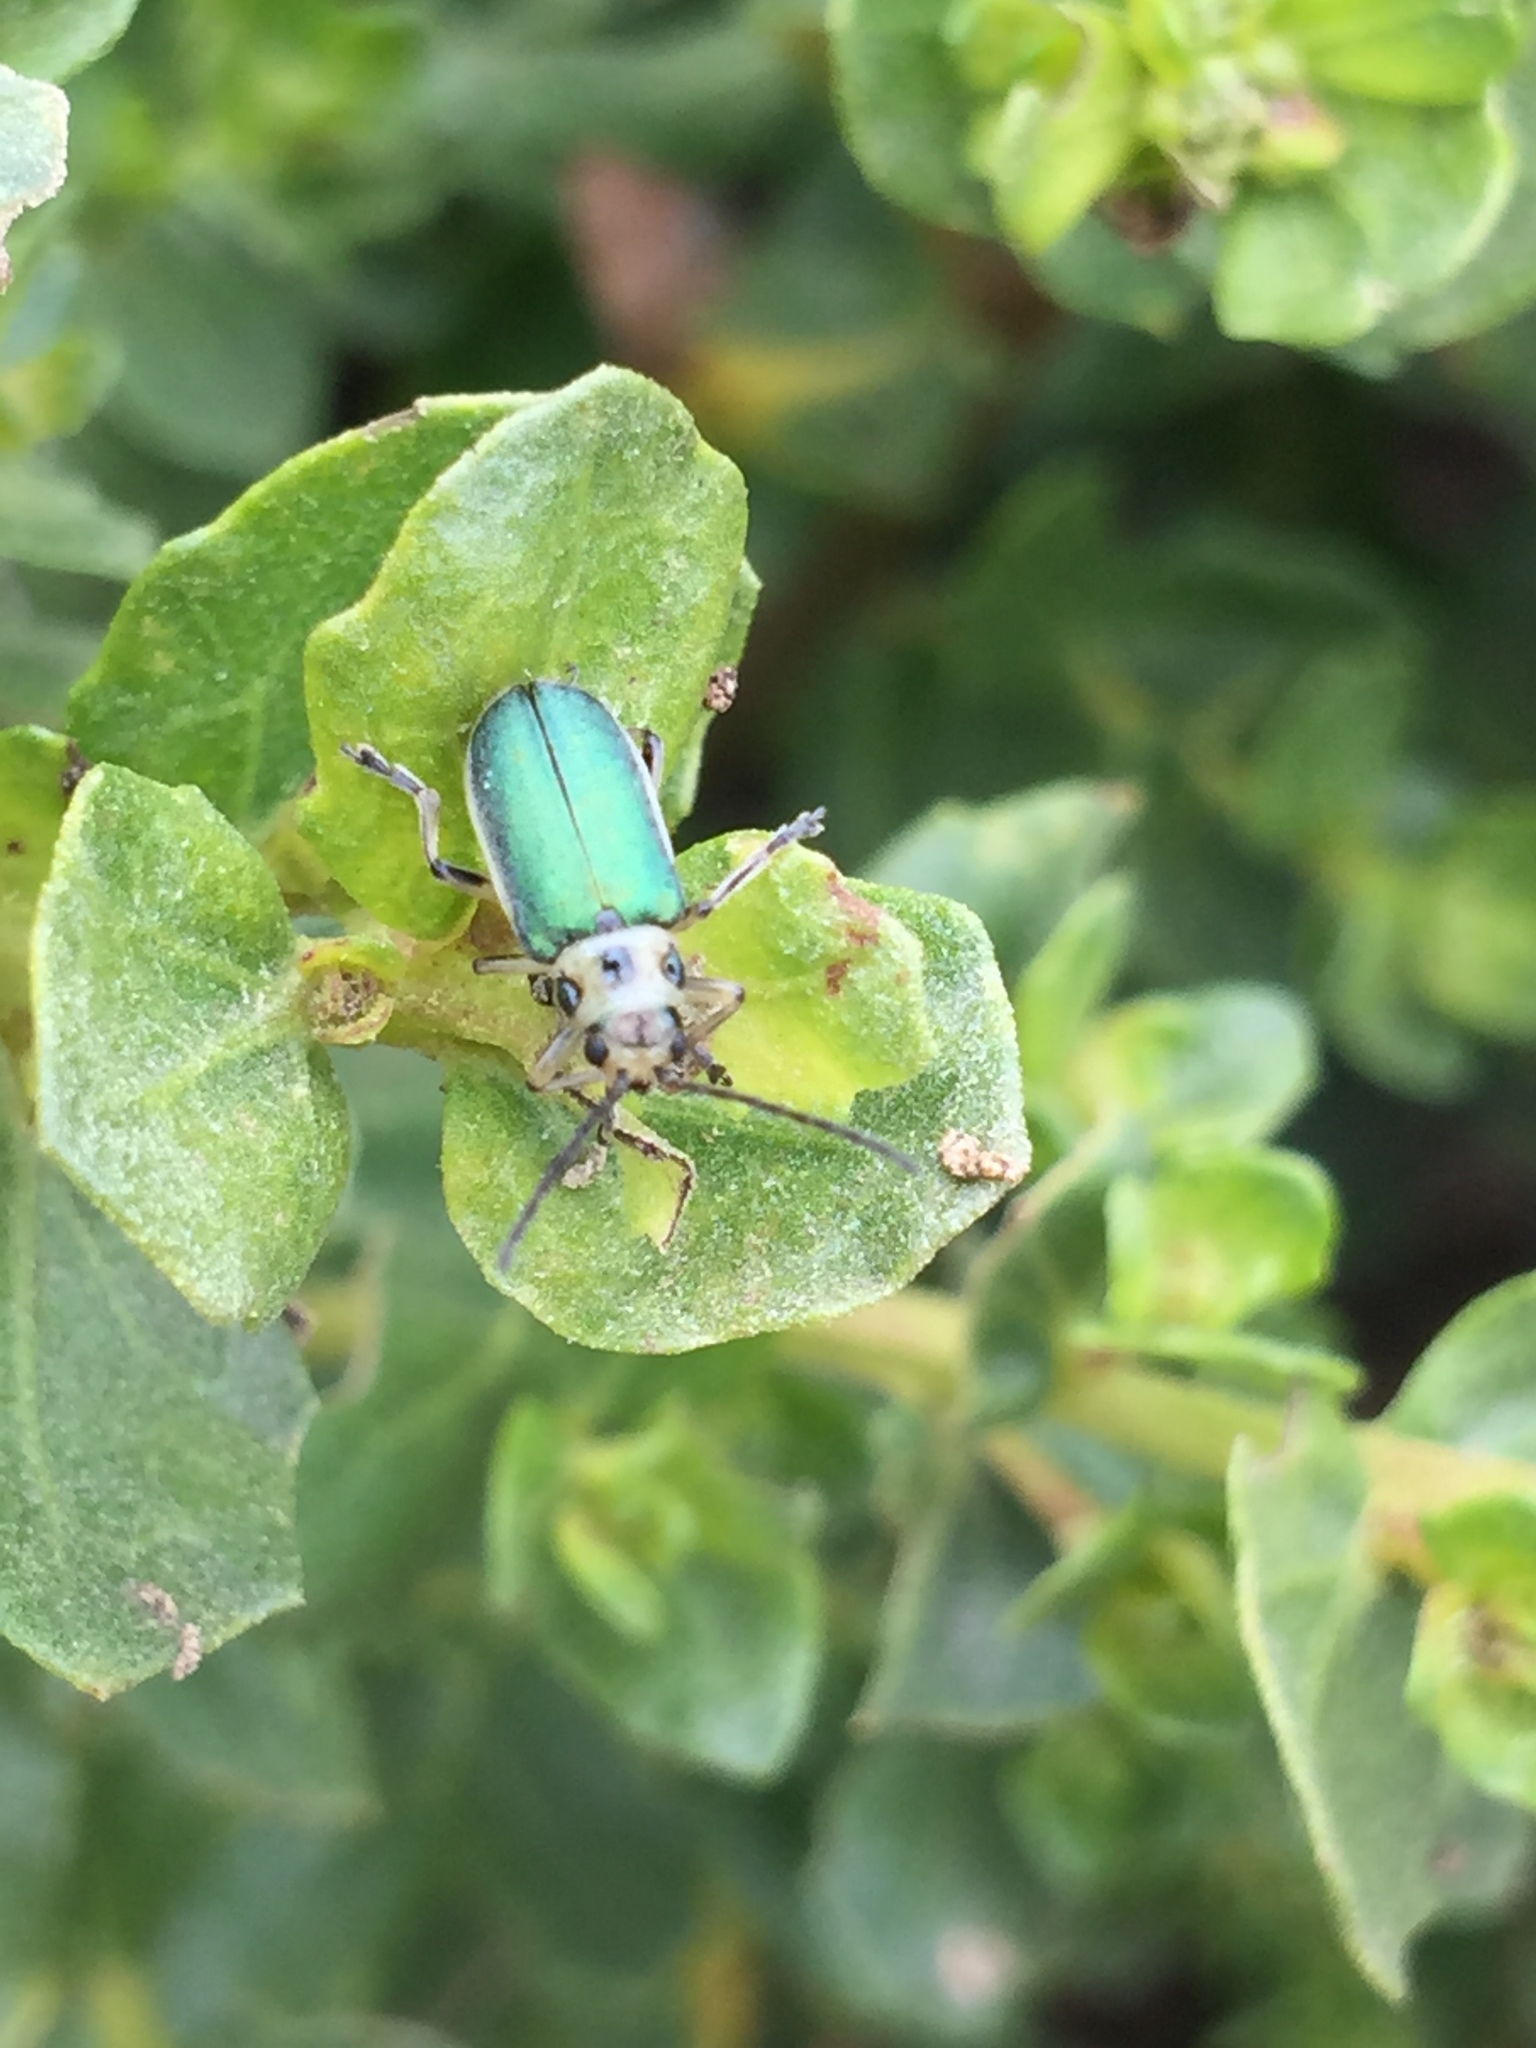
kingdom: Animalia
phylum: Arthropoda
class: Insecta
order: Coleoptera
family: Chrysomelidae
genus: Trirhabda
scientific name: Trirhabda flavolimbata
